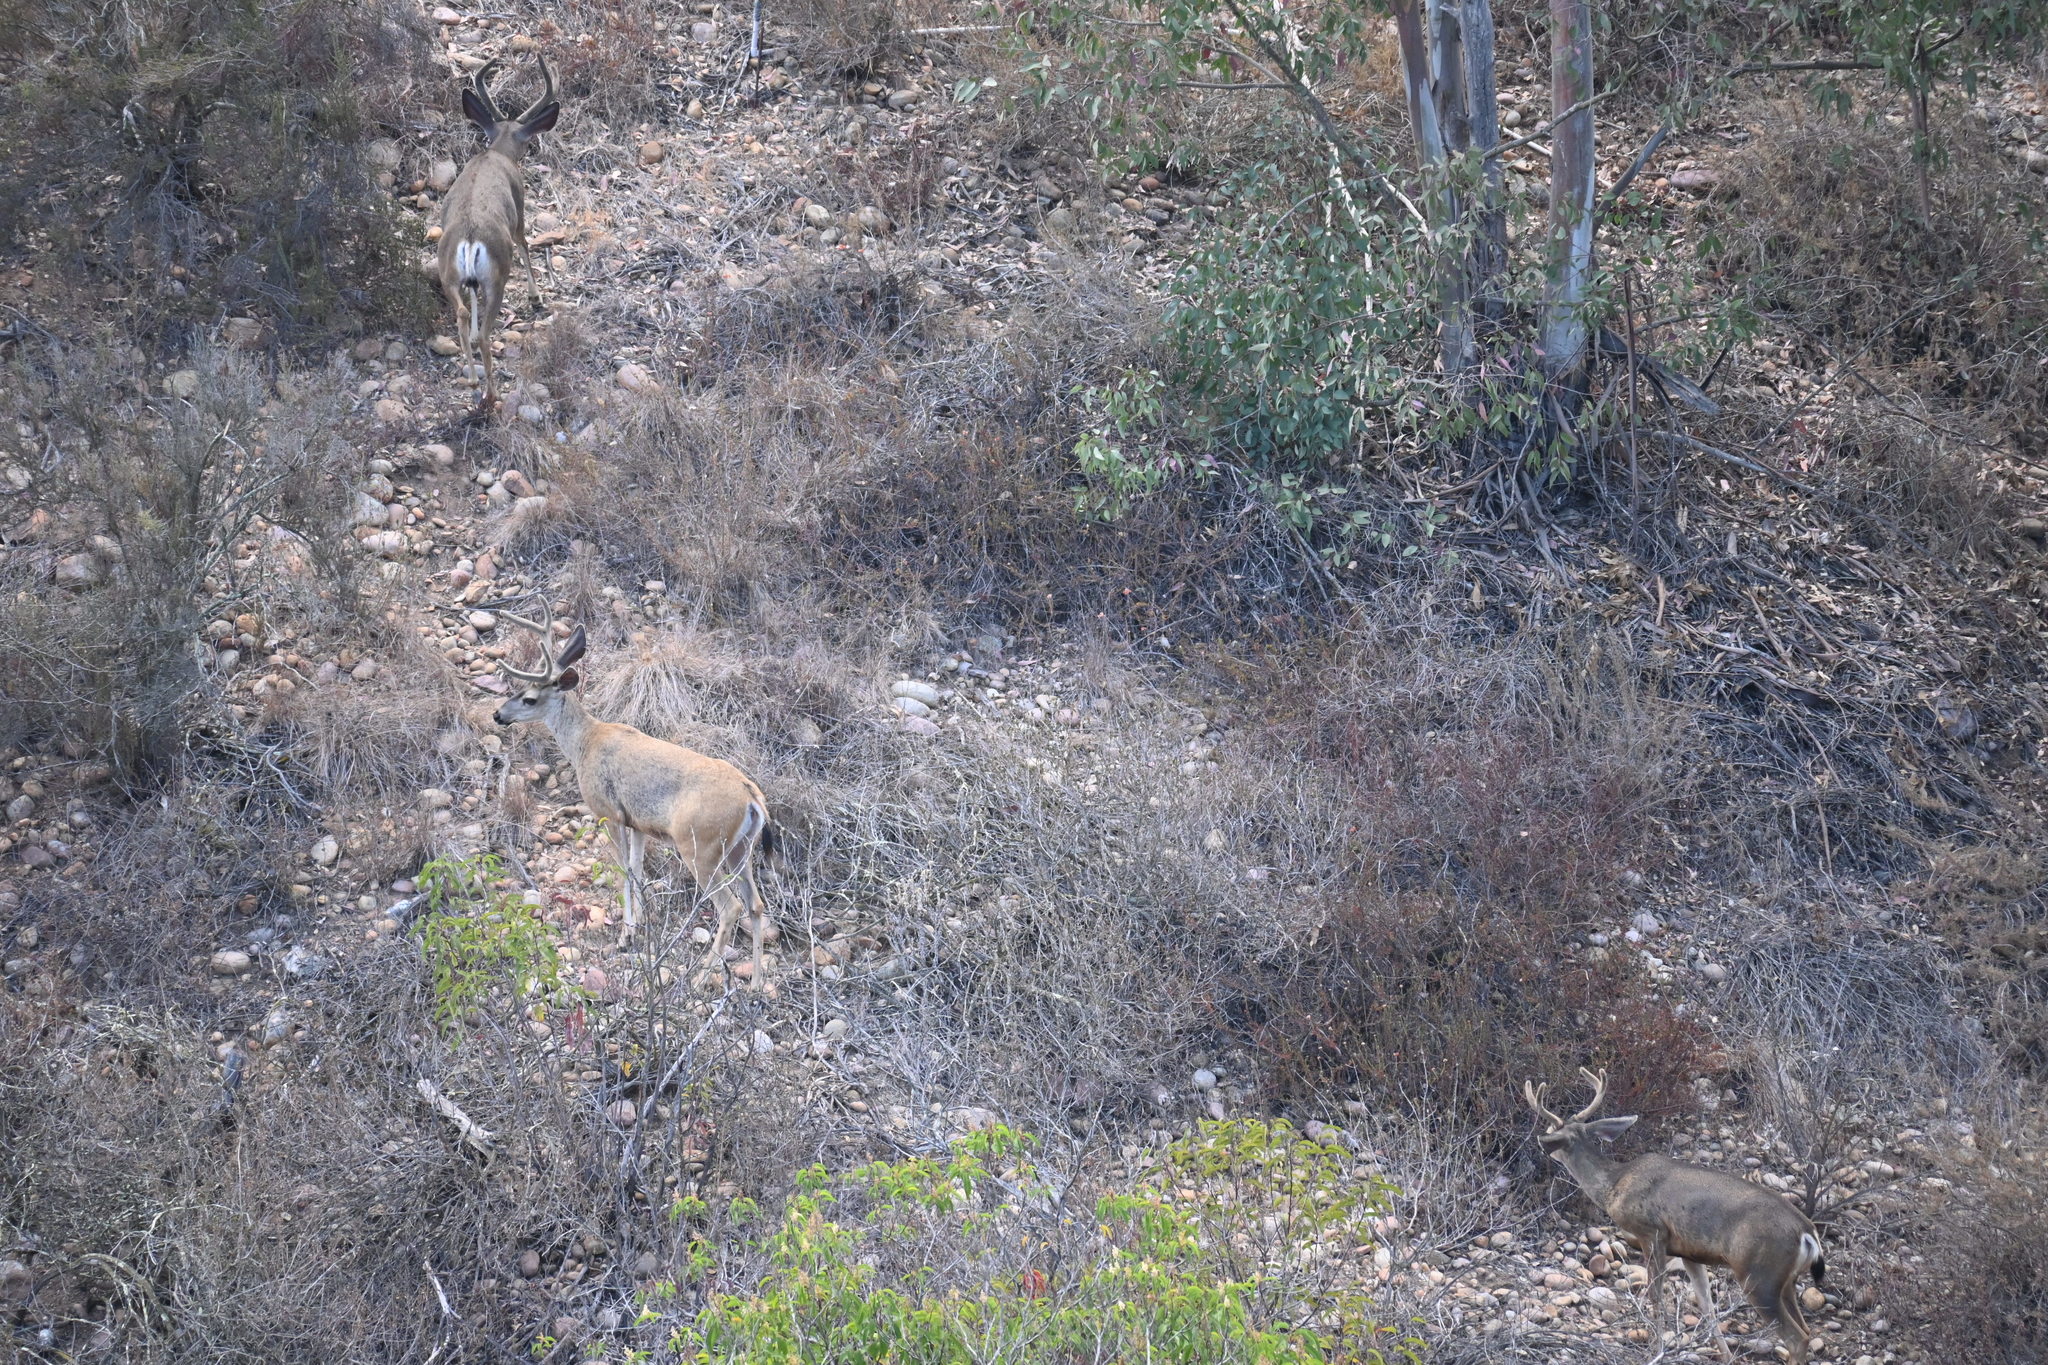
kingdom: Animalia
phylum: Chordata
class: Mammalia
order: Artiodactyla
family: Cervidae
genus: Odocoileus
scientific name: Odocoileus hemionus
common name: Mule deer
